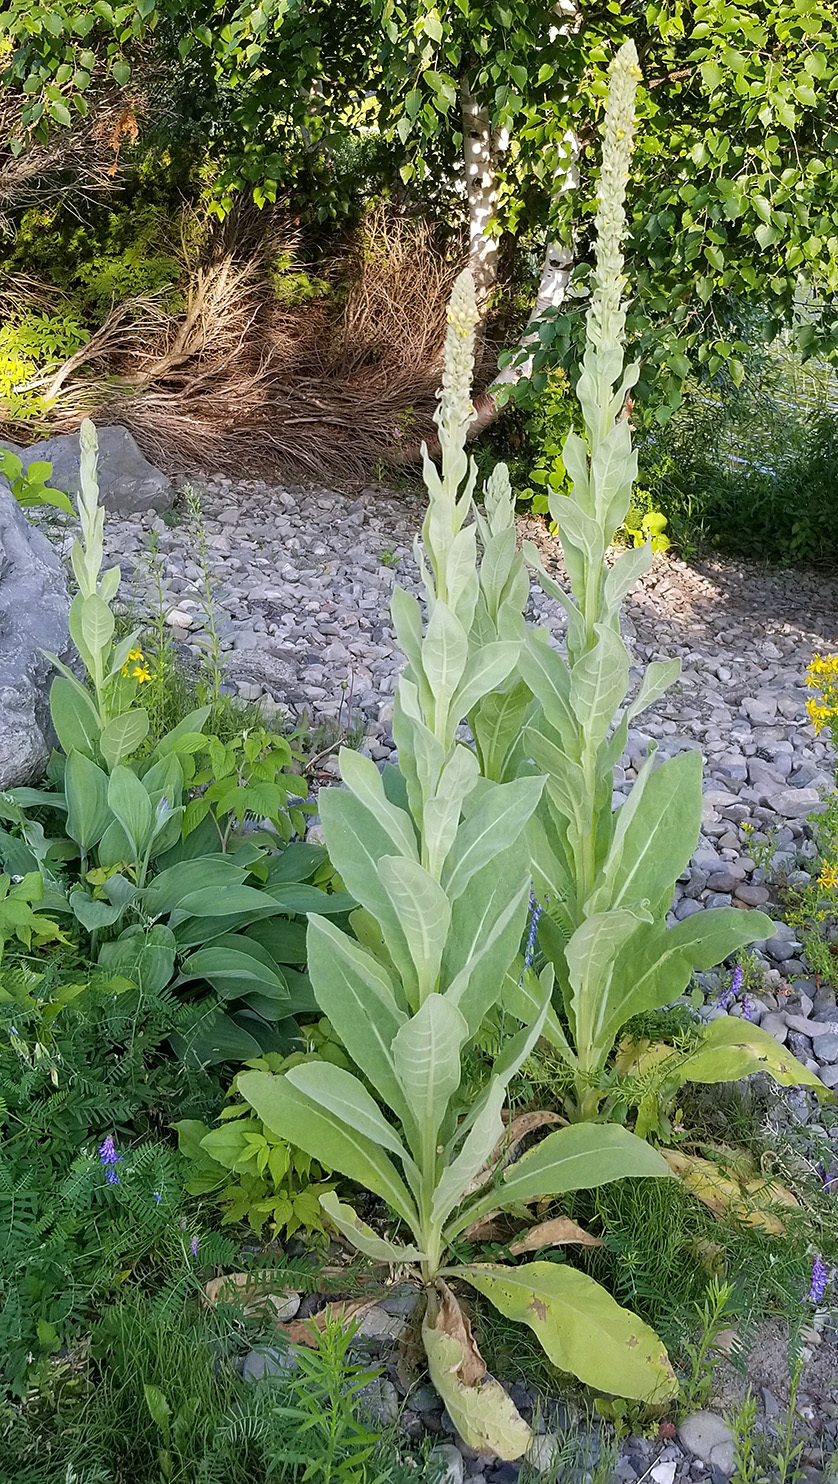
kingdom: Plantae
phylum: Tracheophyta
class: Magnoliopsida
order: Lamiales
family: Scrophulariaceae
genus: Verbascum
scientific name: Verbascum thapsus
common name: Common mullein
